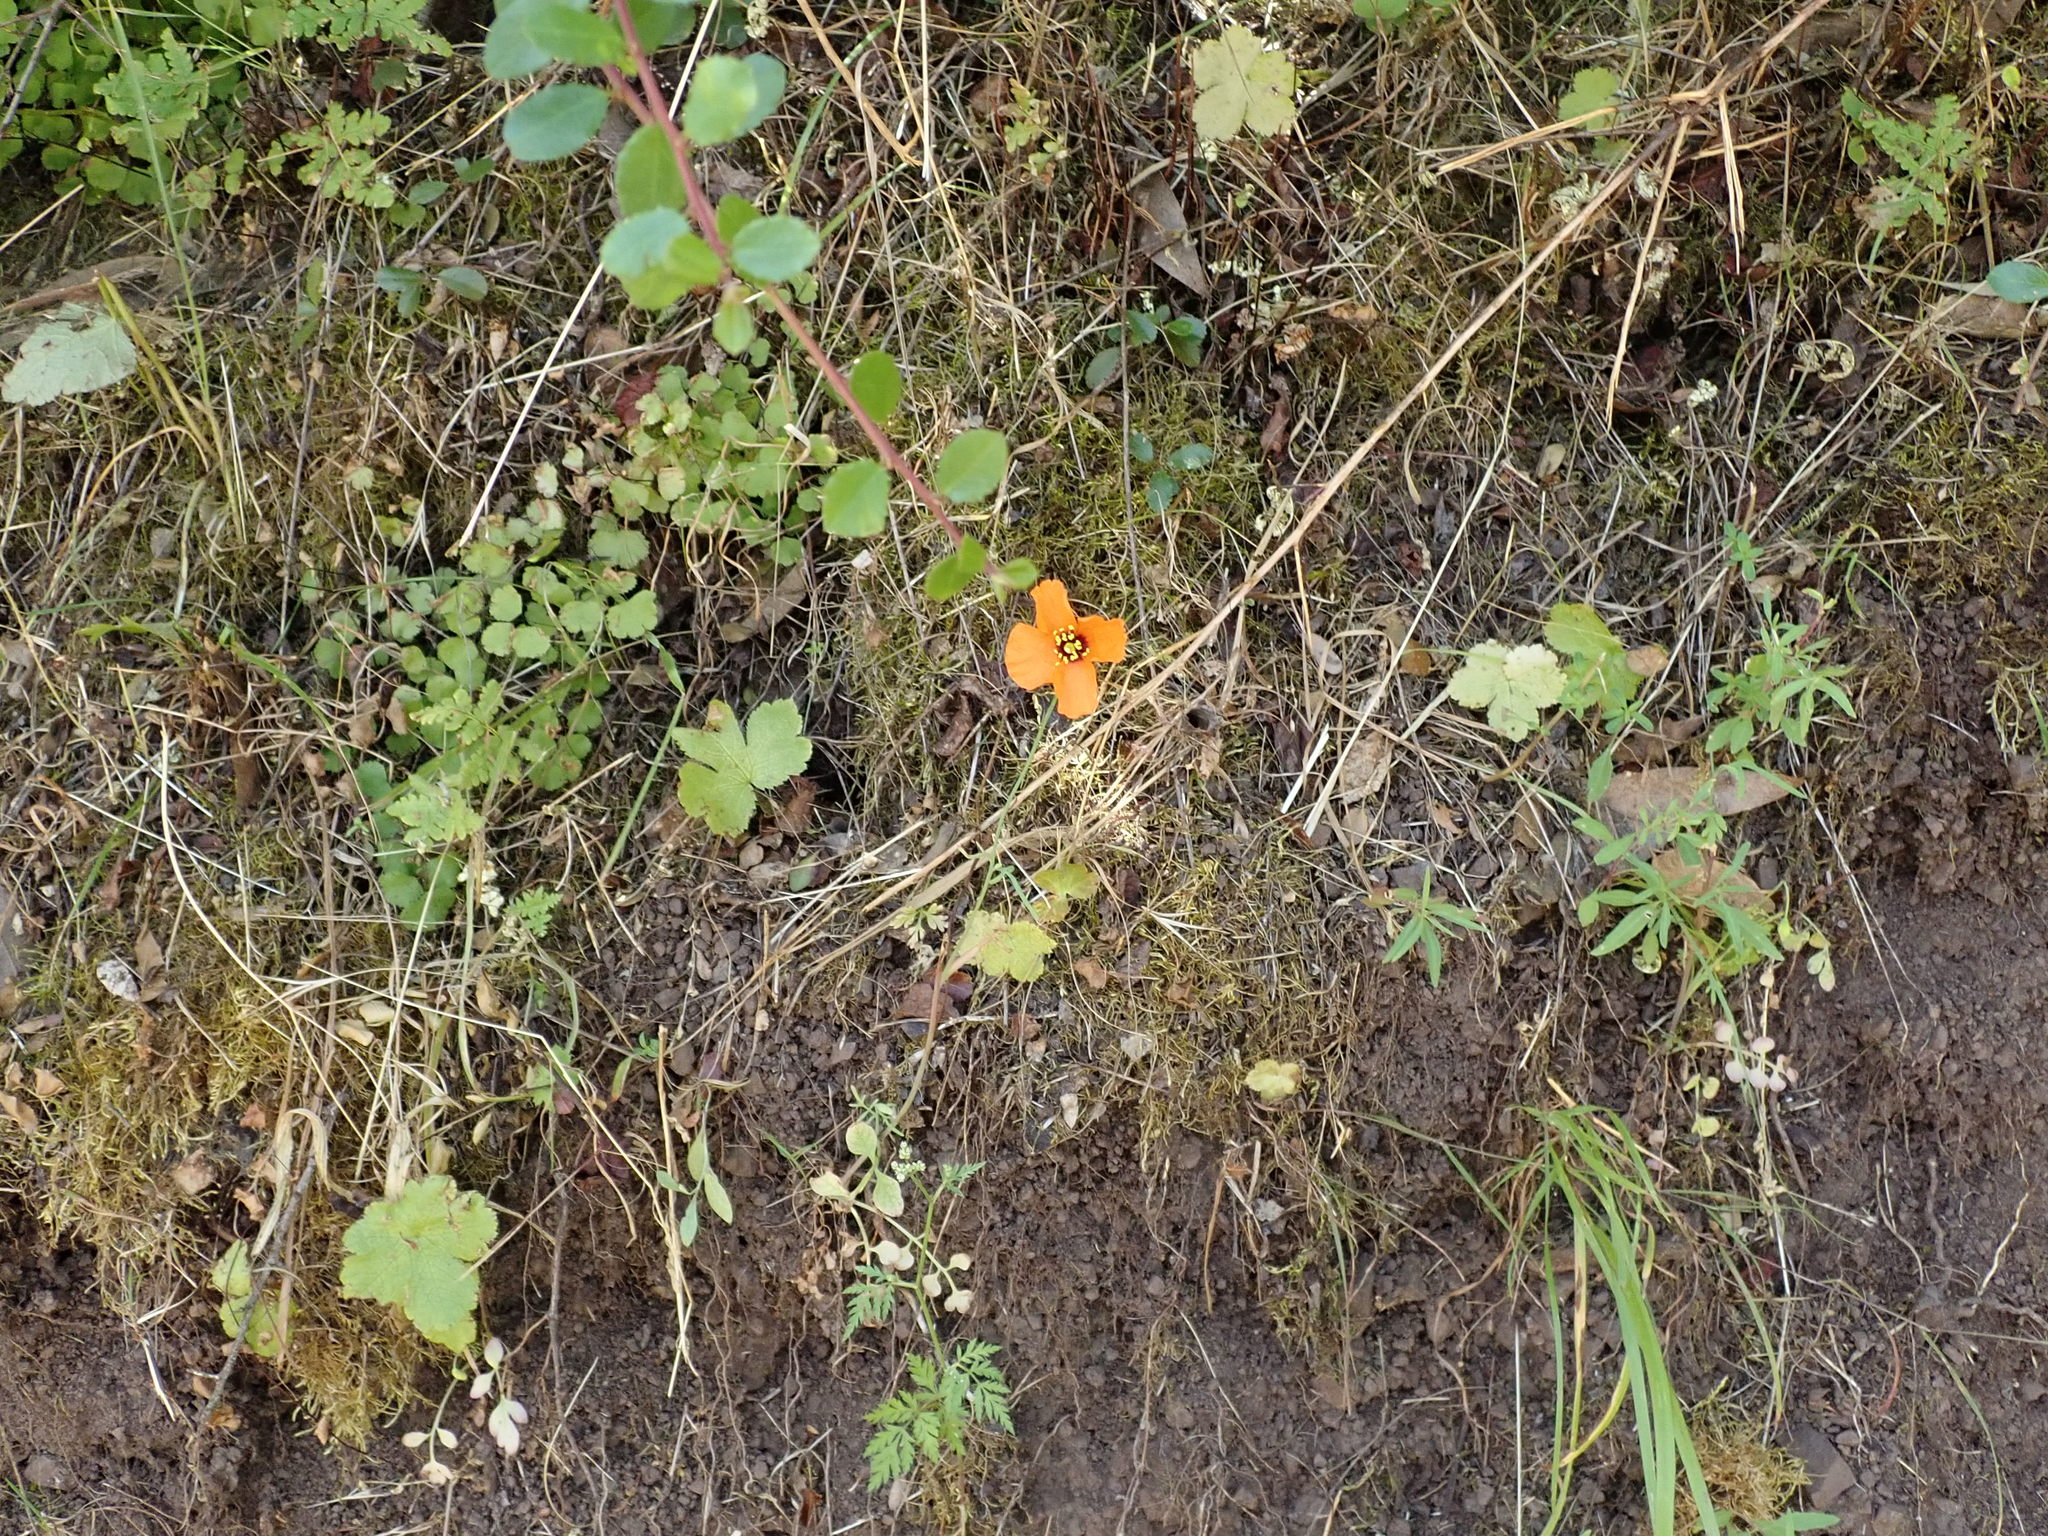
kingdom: Plantae
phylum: Tracheophyta
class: Magnoliopsida
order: Ranunculales
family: Papaveraceae
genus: Stylomecon
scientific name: Stylomecon heterophylla
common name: Flaming-poppy
